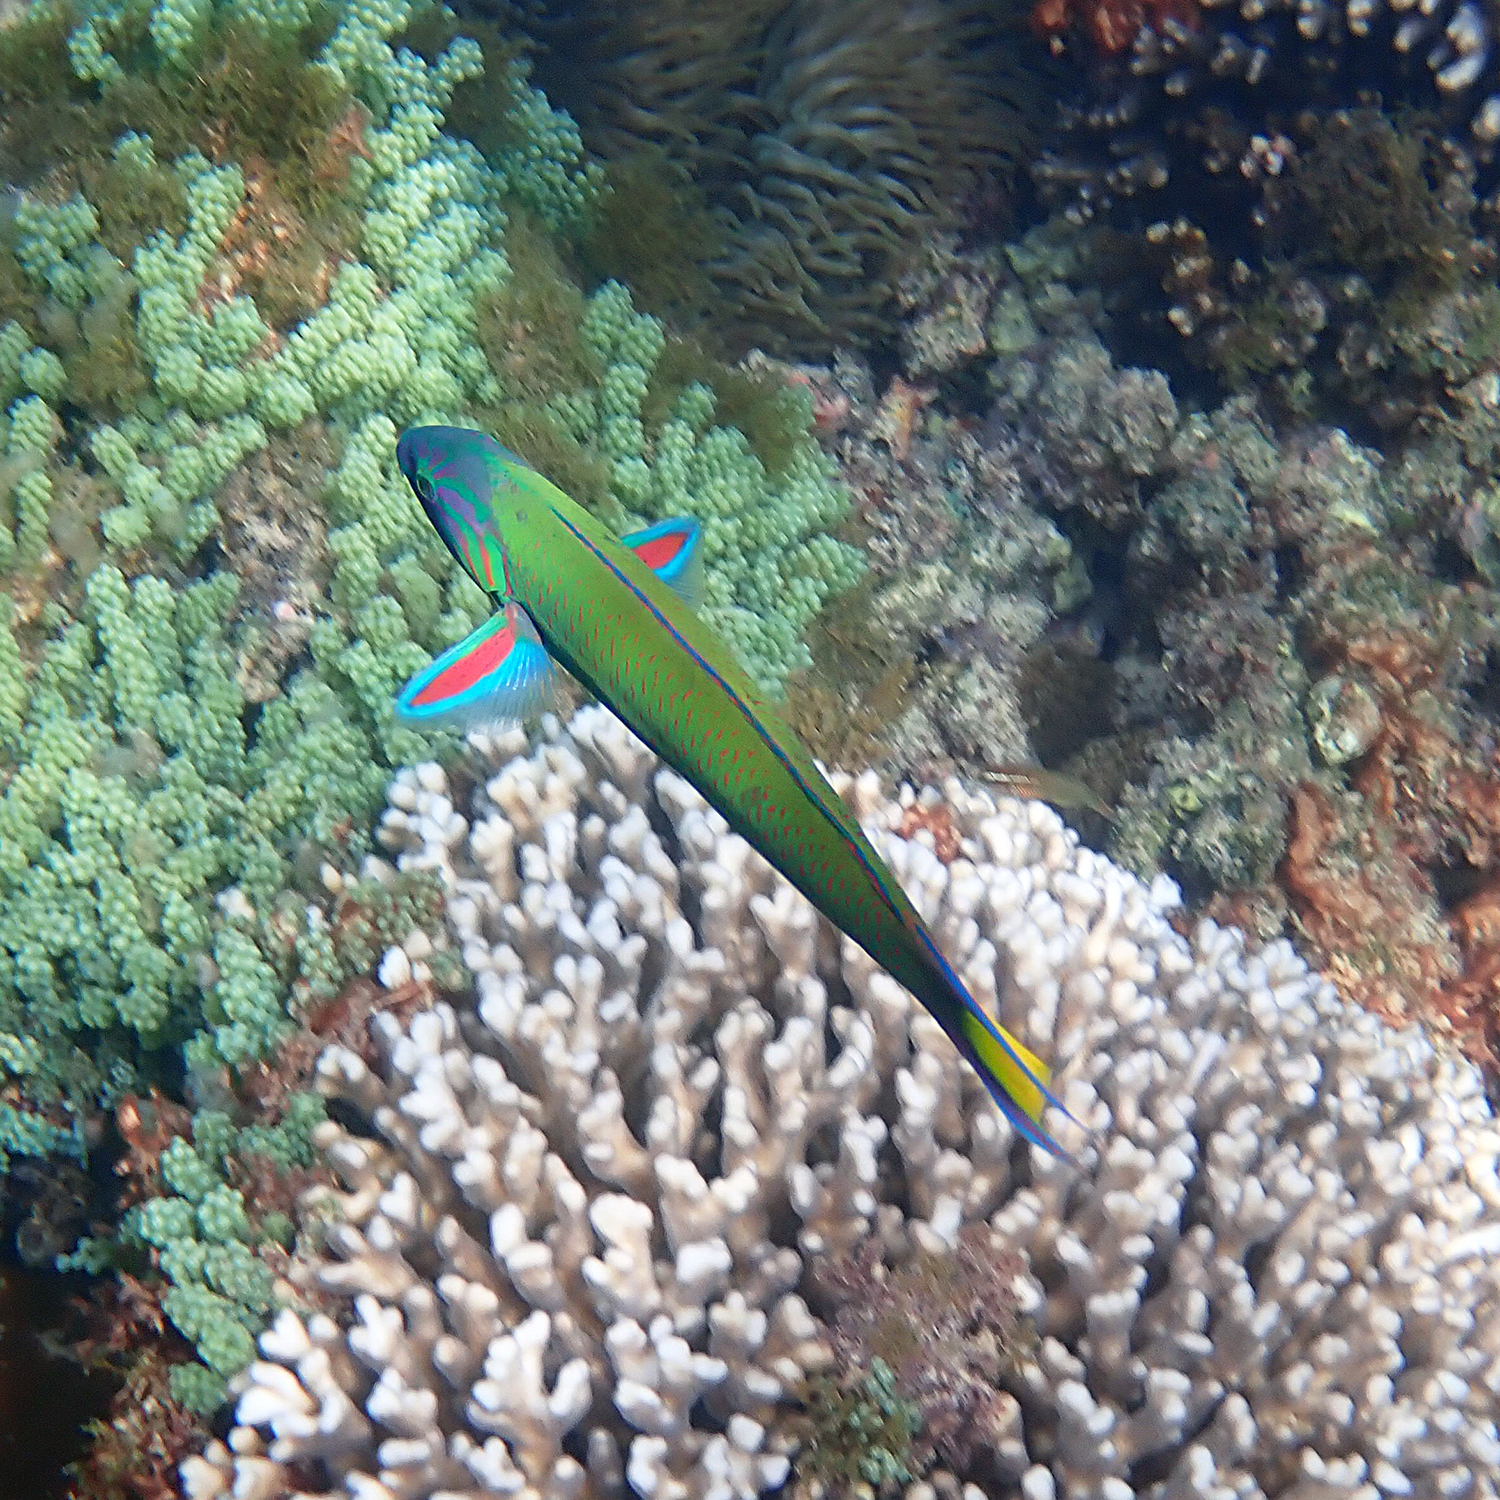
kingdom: Animalia
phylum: Chordata
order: Perciformes
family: Labridae
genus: Thalassoma
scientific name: Thalassoma lunare
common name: Blue wrasse
